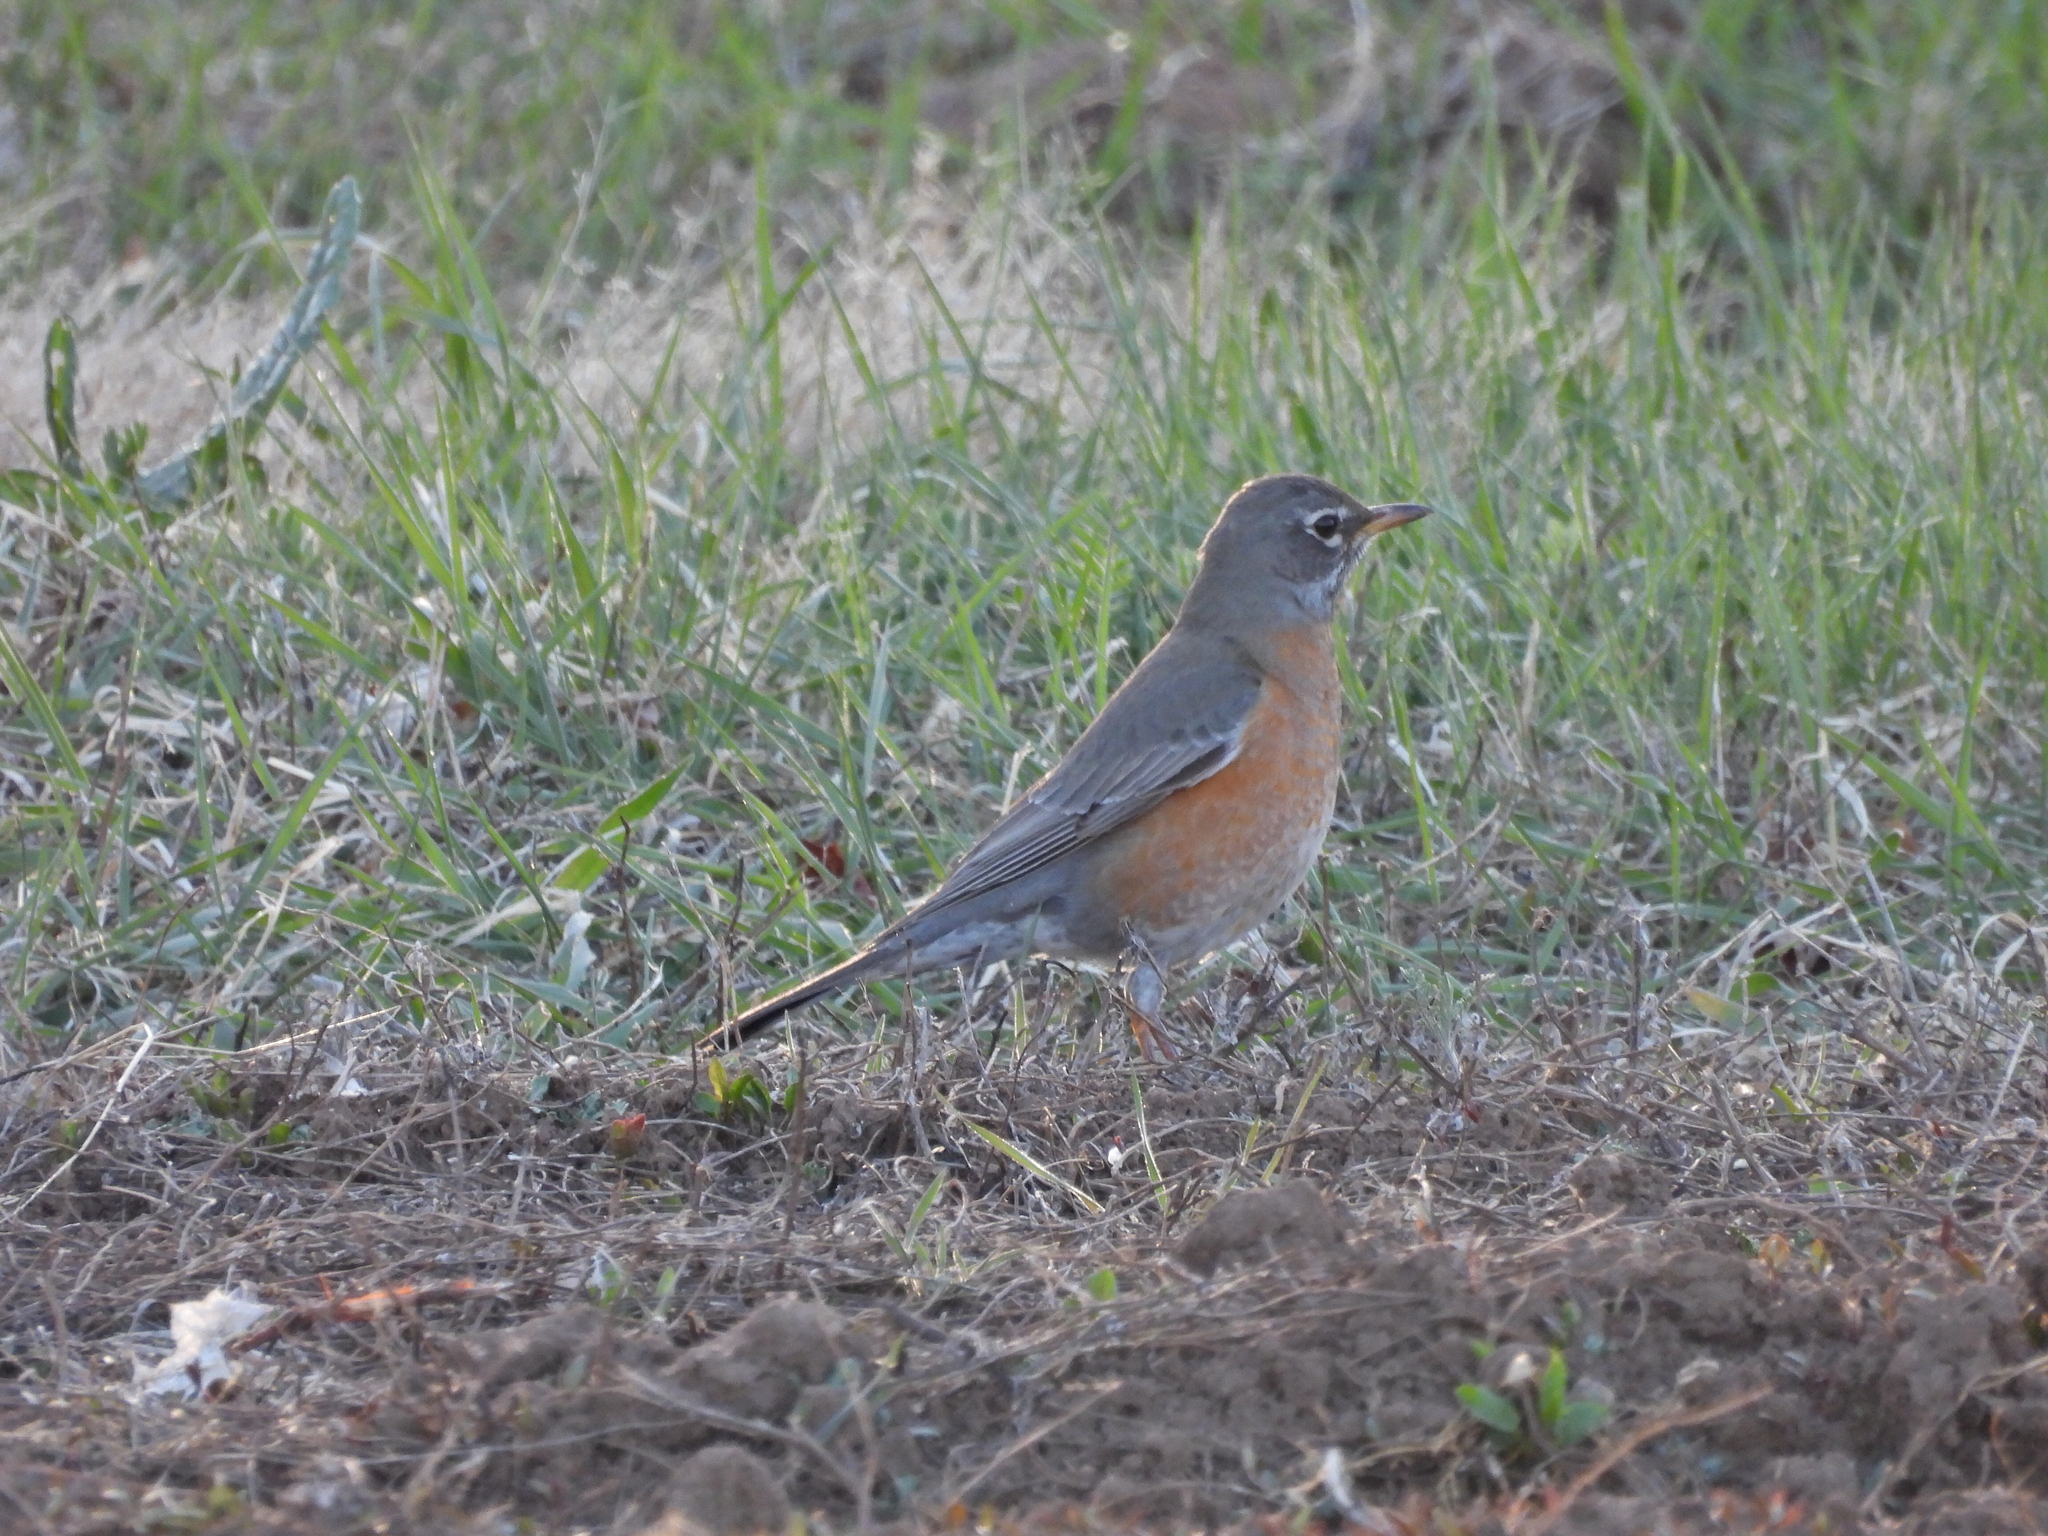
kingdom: Animalia
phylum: Chordata
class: Aves
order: Passeriformes
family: Turdidae
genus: Turdus
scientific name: Turdus migratorius
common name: American robin
